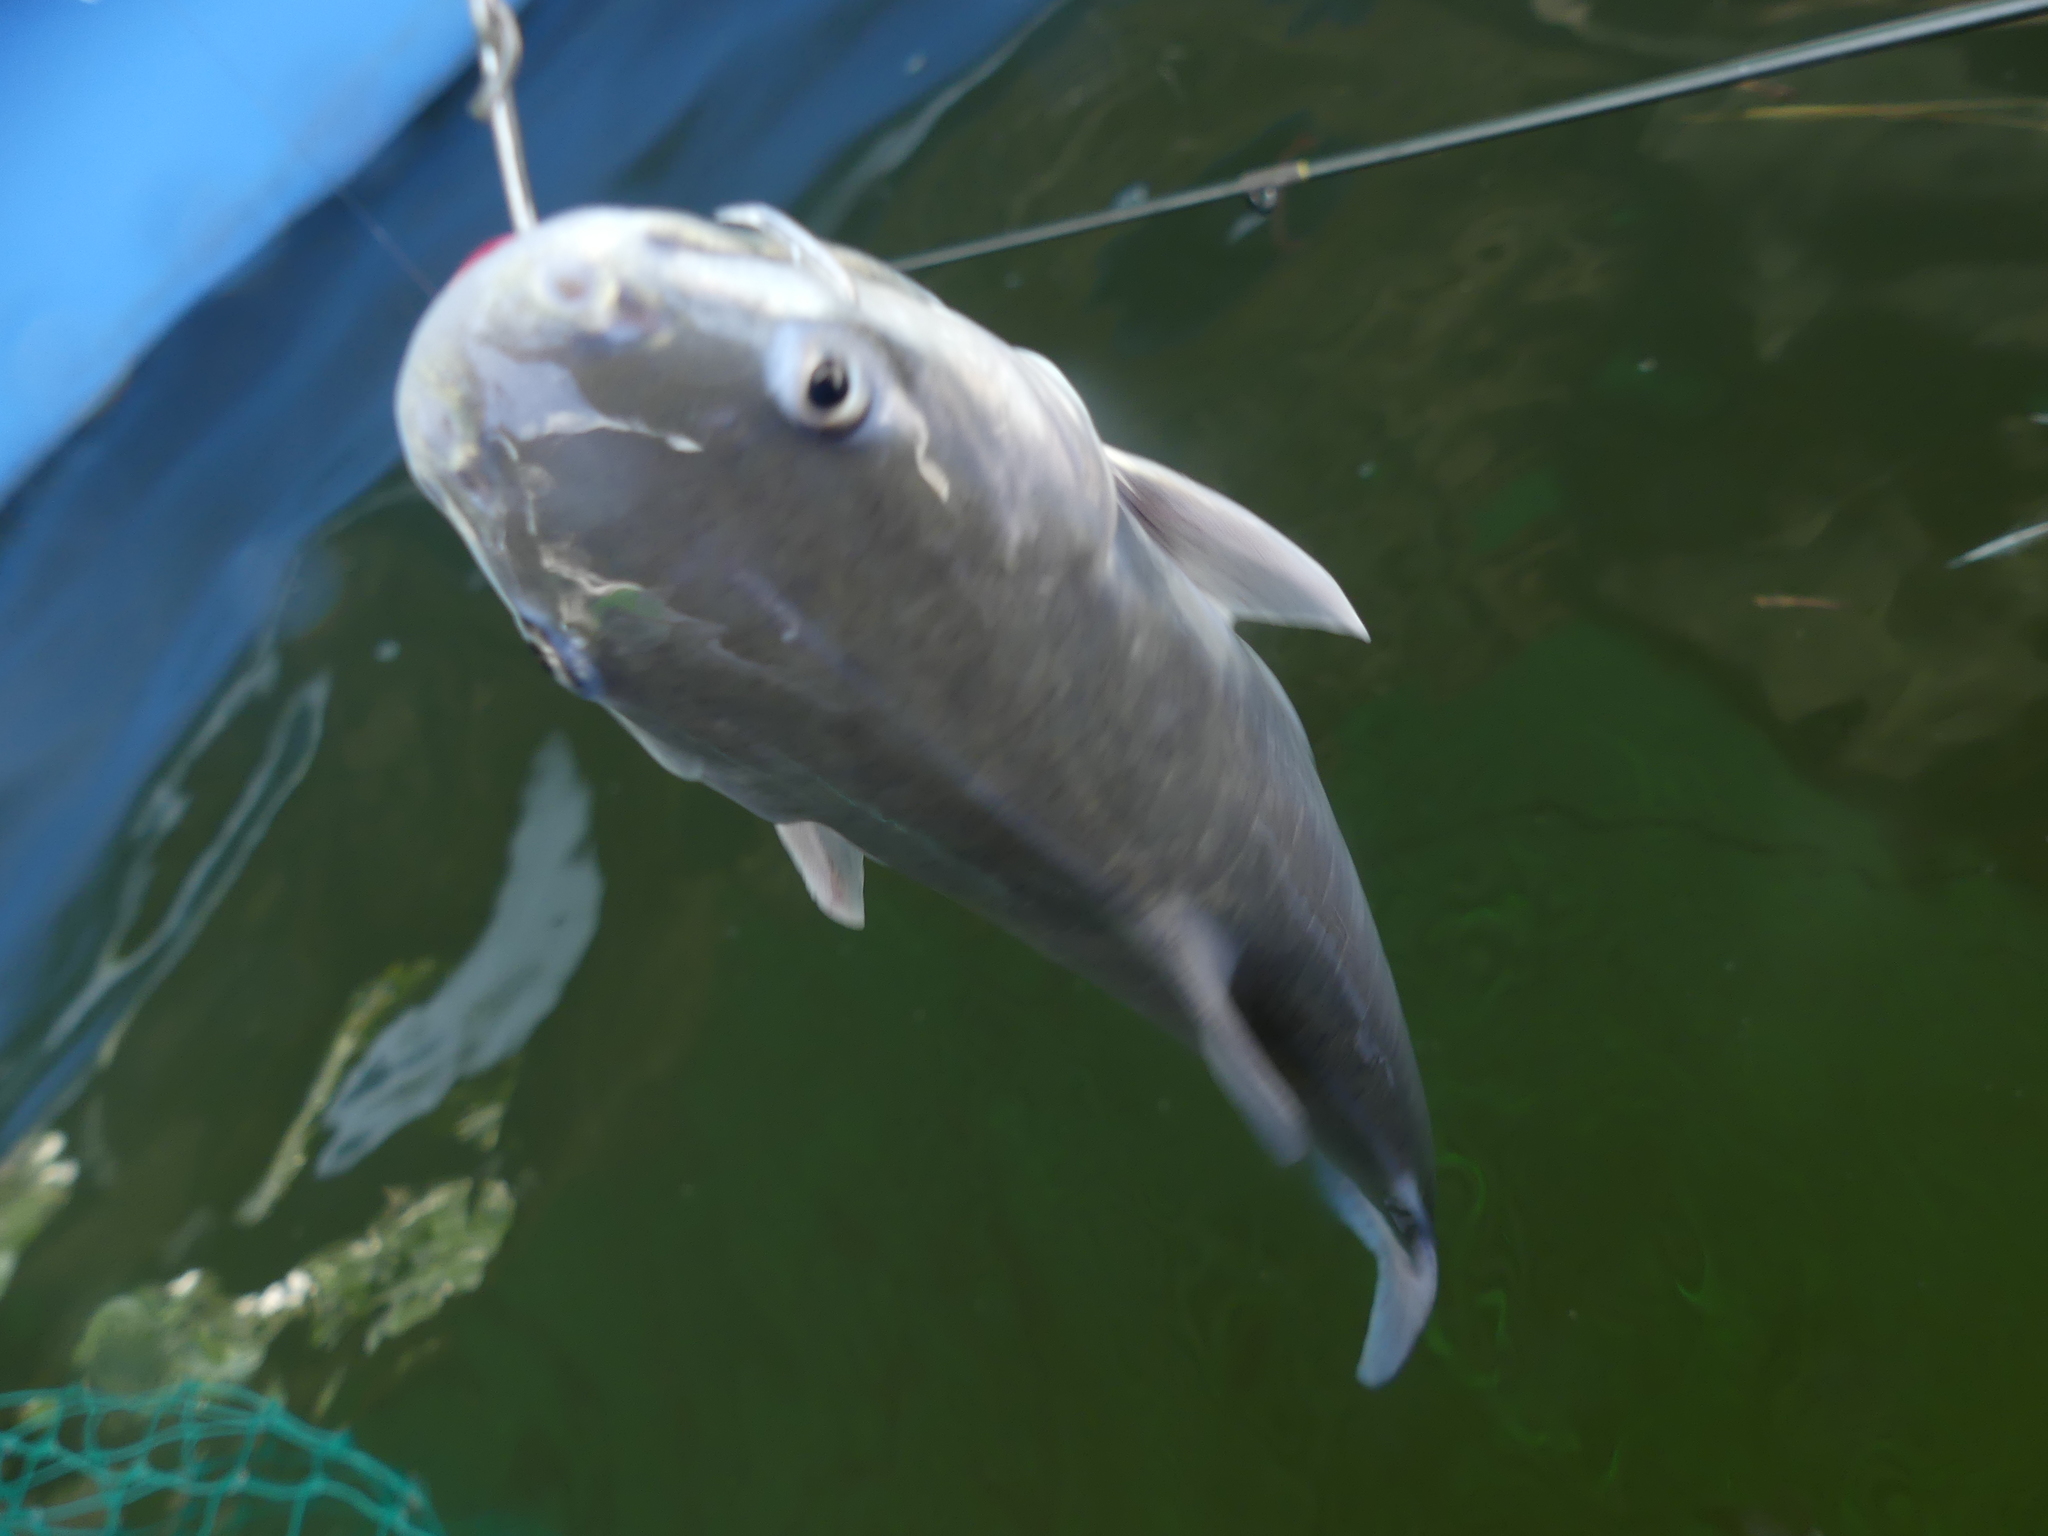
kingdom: Animalia
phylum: Chordata
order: Siluriformes
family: Ariidae
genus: Ariopsis
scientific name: Ariopsis felis
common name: Hardhead catfish
